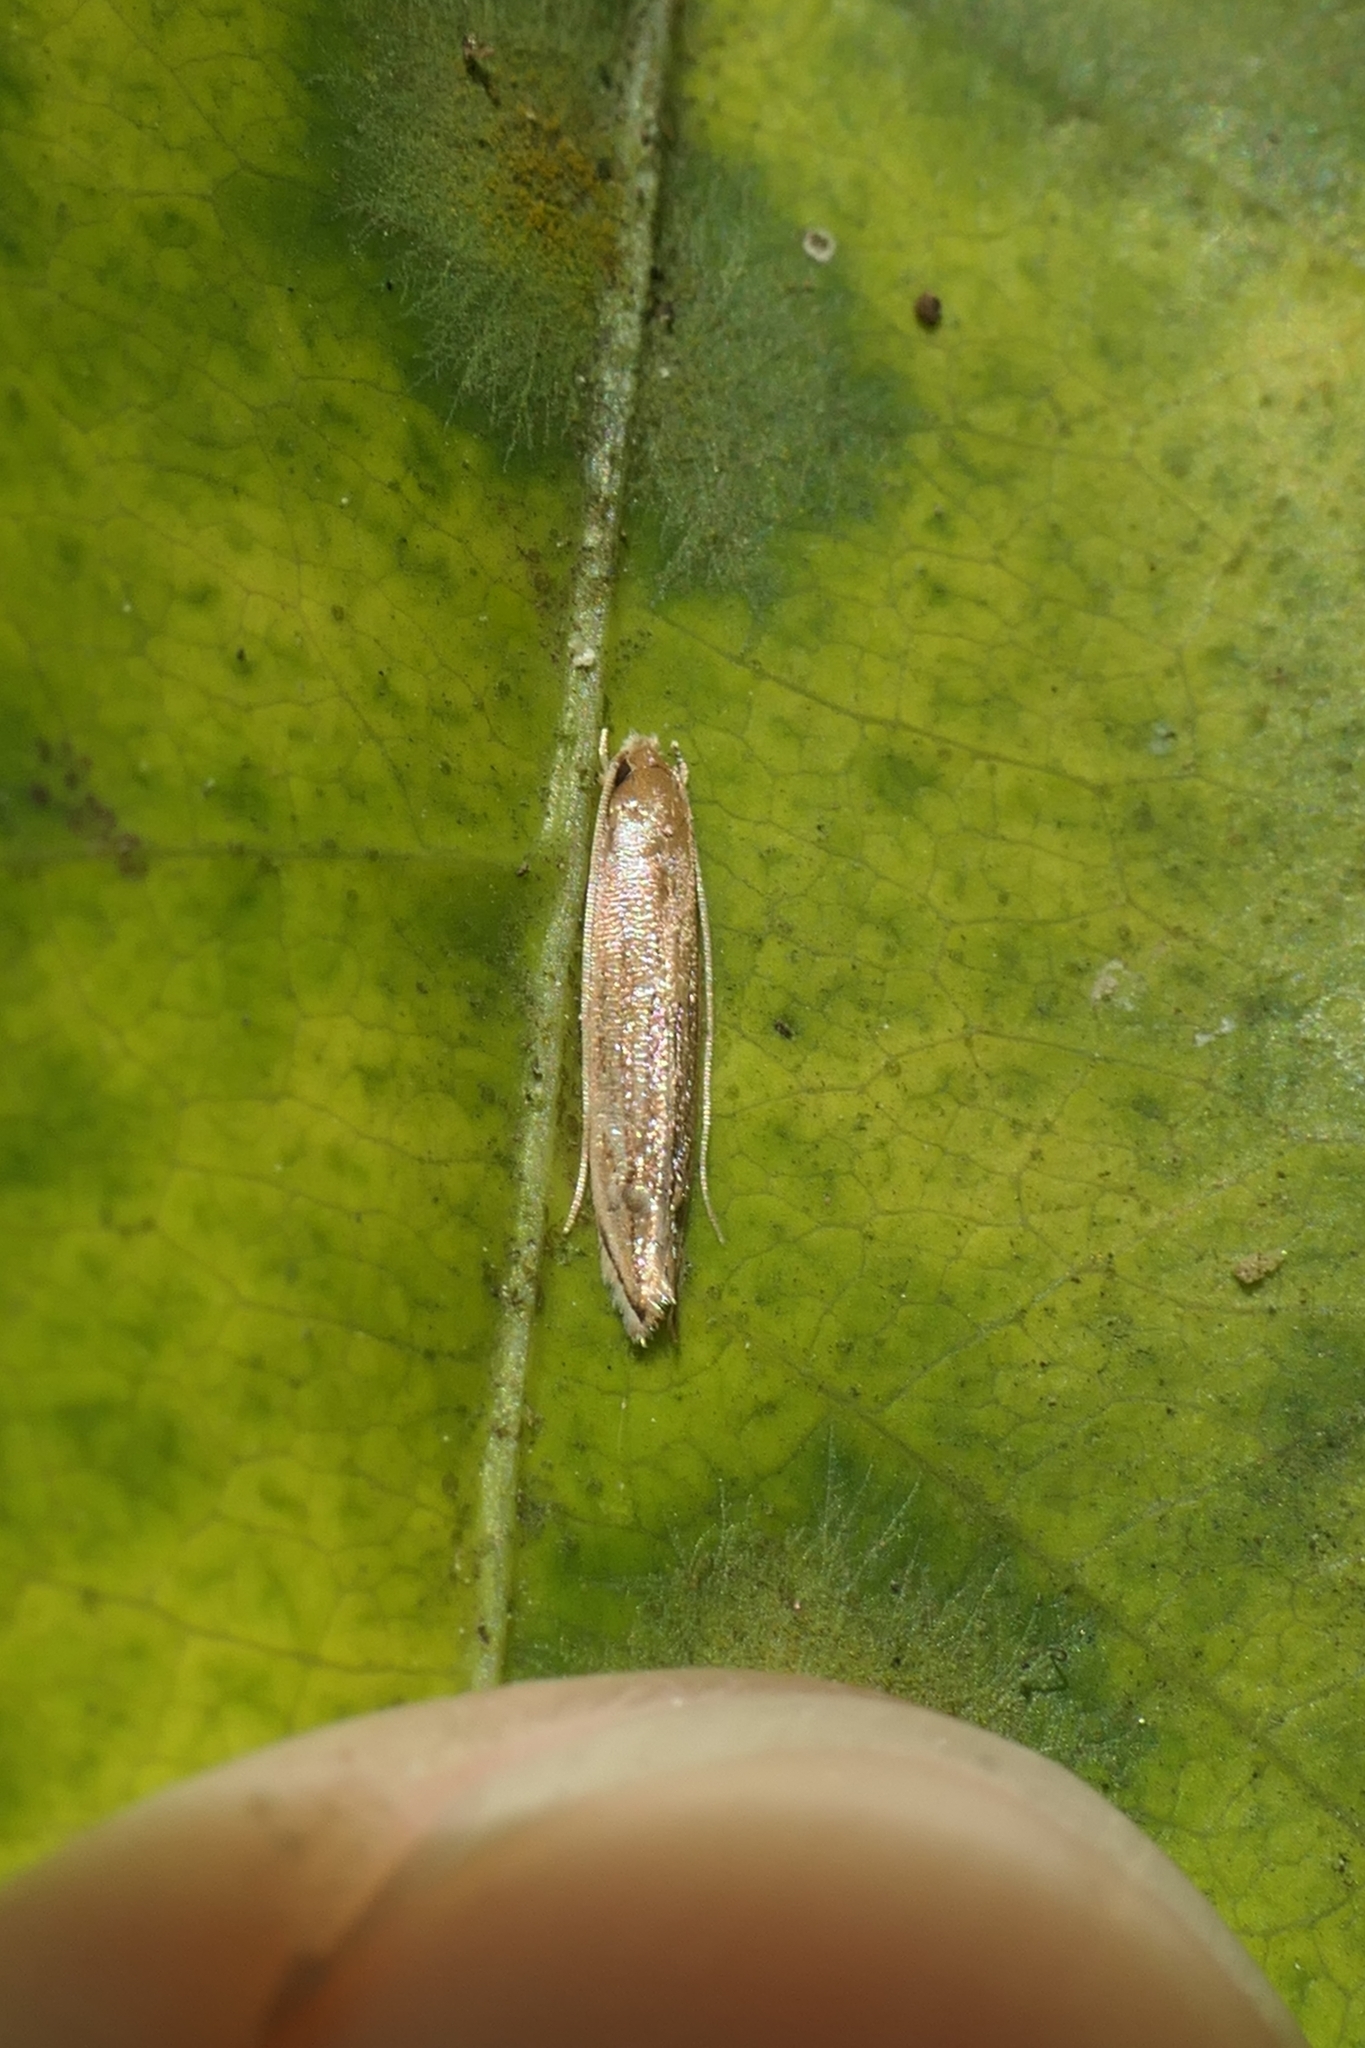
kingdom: Animalia
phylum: Arthropoda
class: Insecta
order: Lepidoptera
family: Tineidae
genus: Amphixystis
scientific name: Amphixystis hapsimacha
